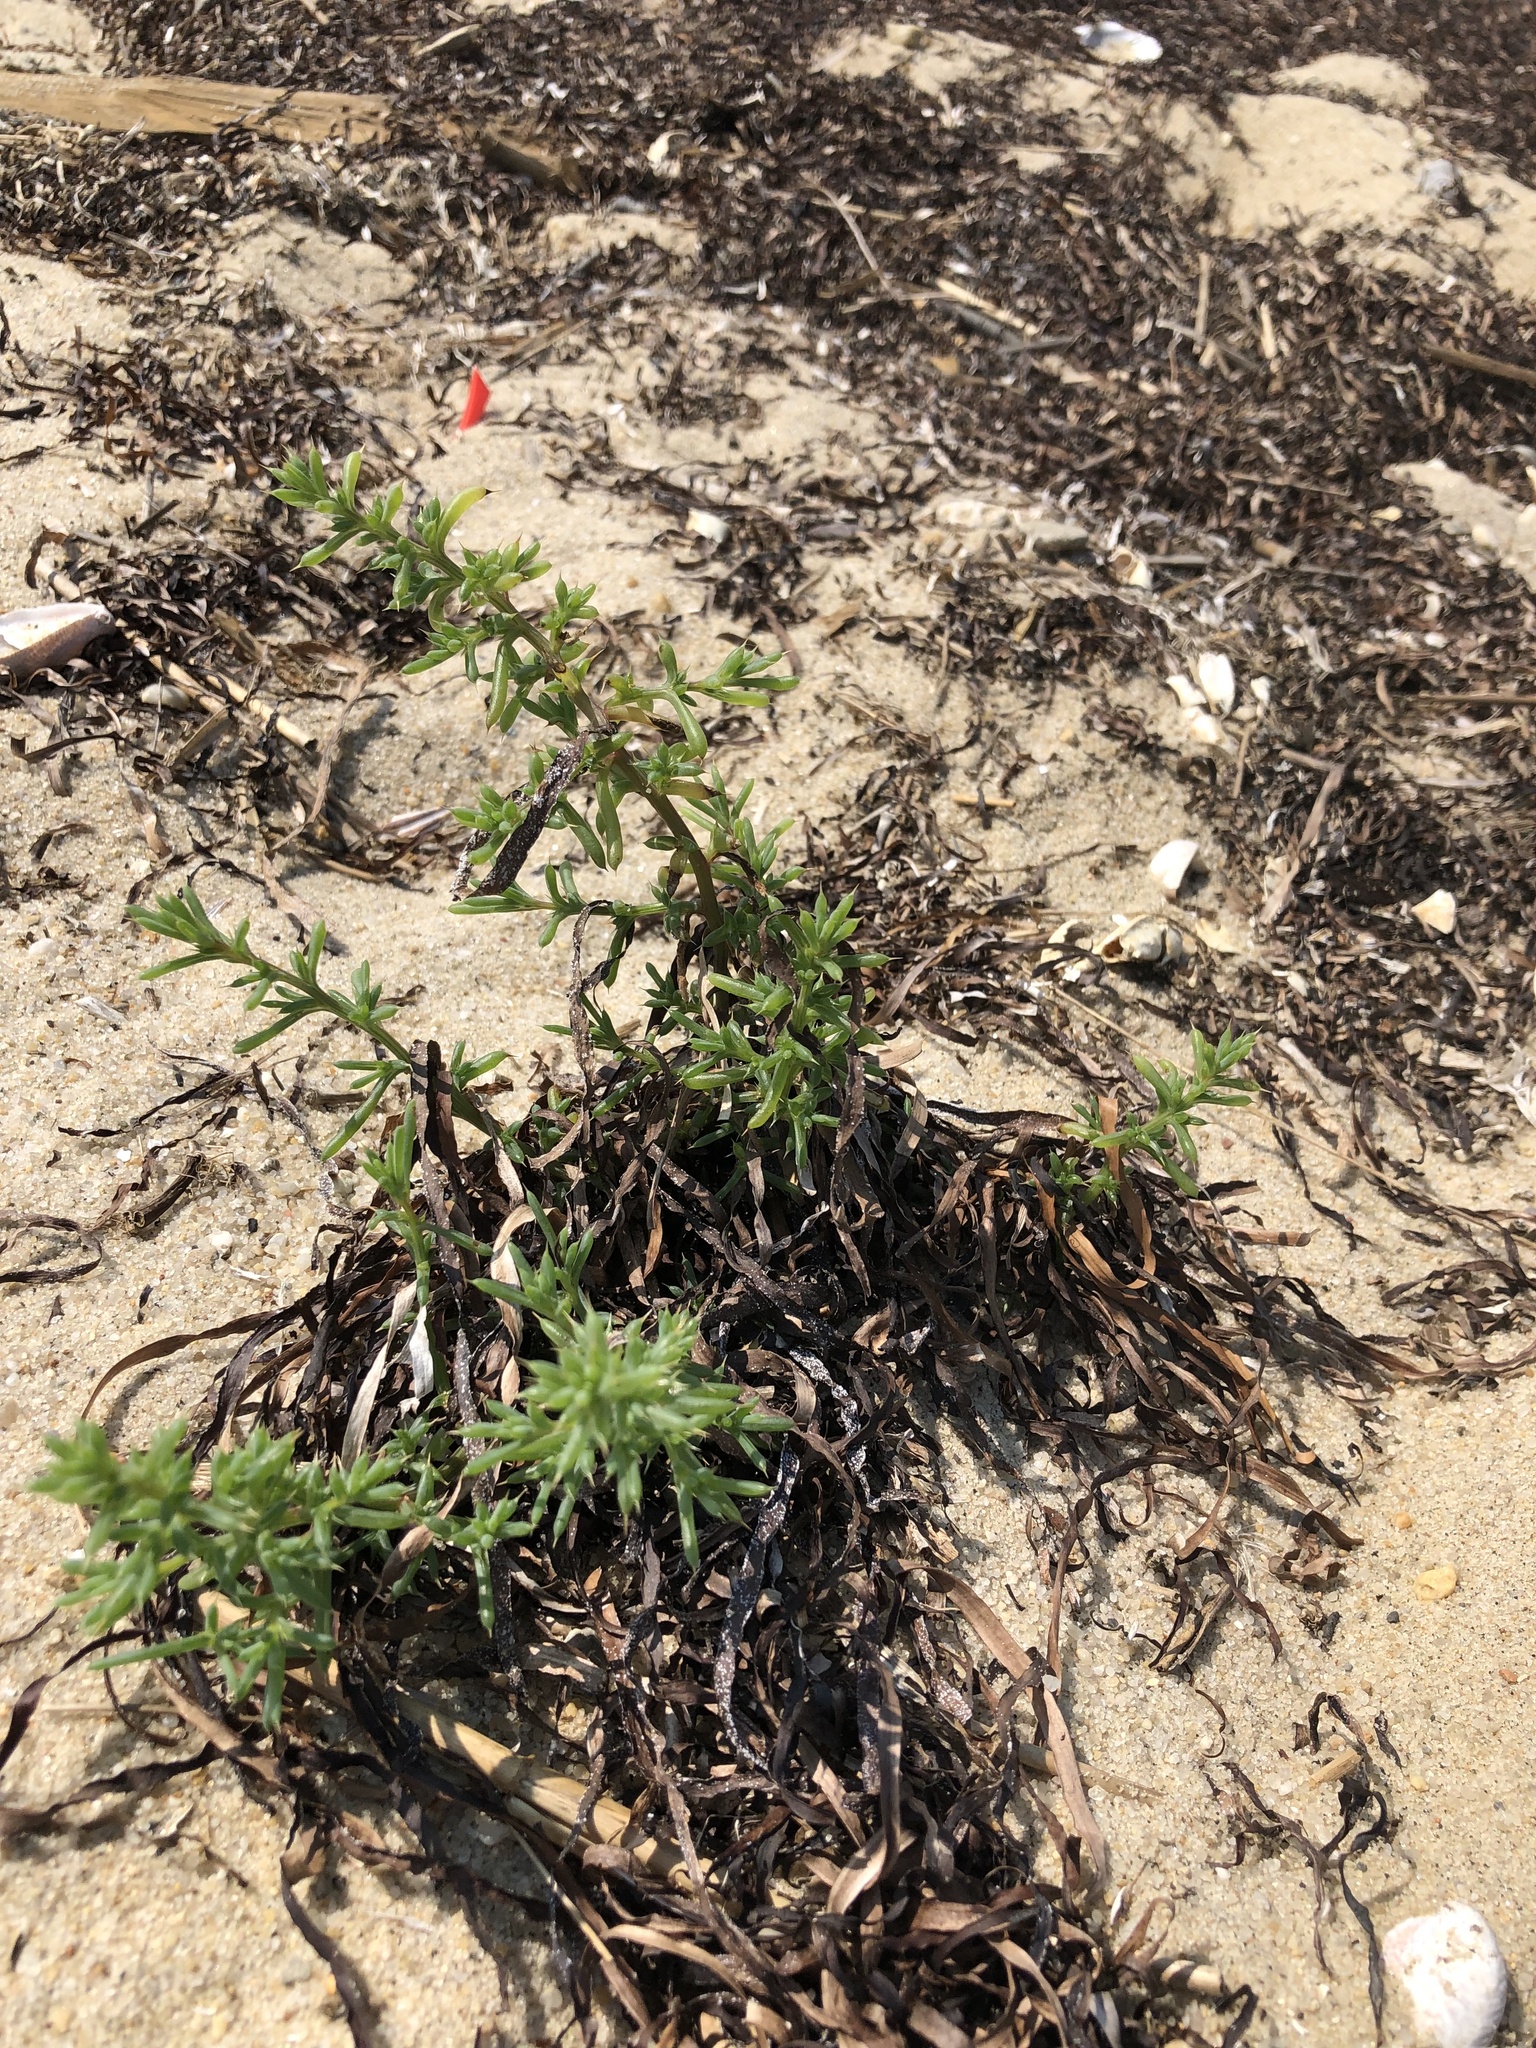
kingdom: Plantae
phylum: Tracheophyta
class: Magnoliopsida
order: Caryophyllales
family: Amaranthaceae
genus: Salsola
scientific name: Salsola kali
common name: Saltwort
